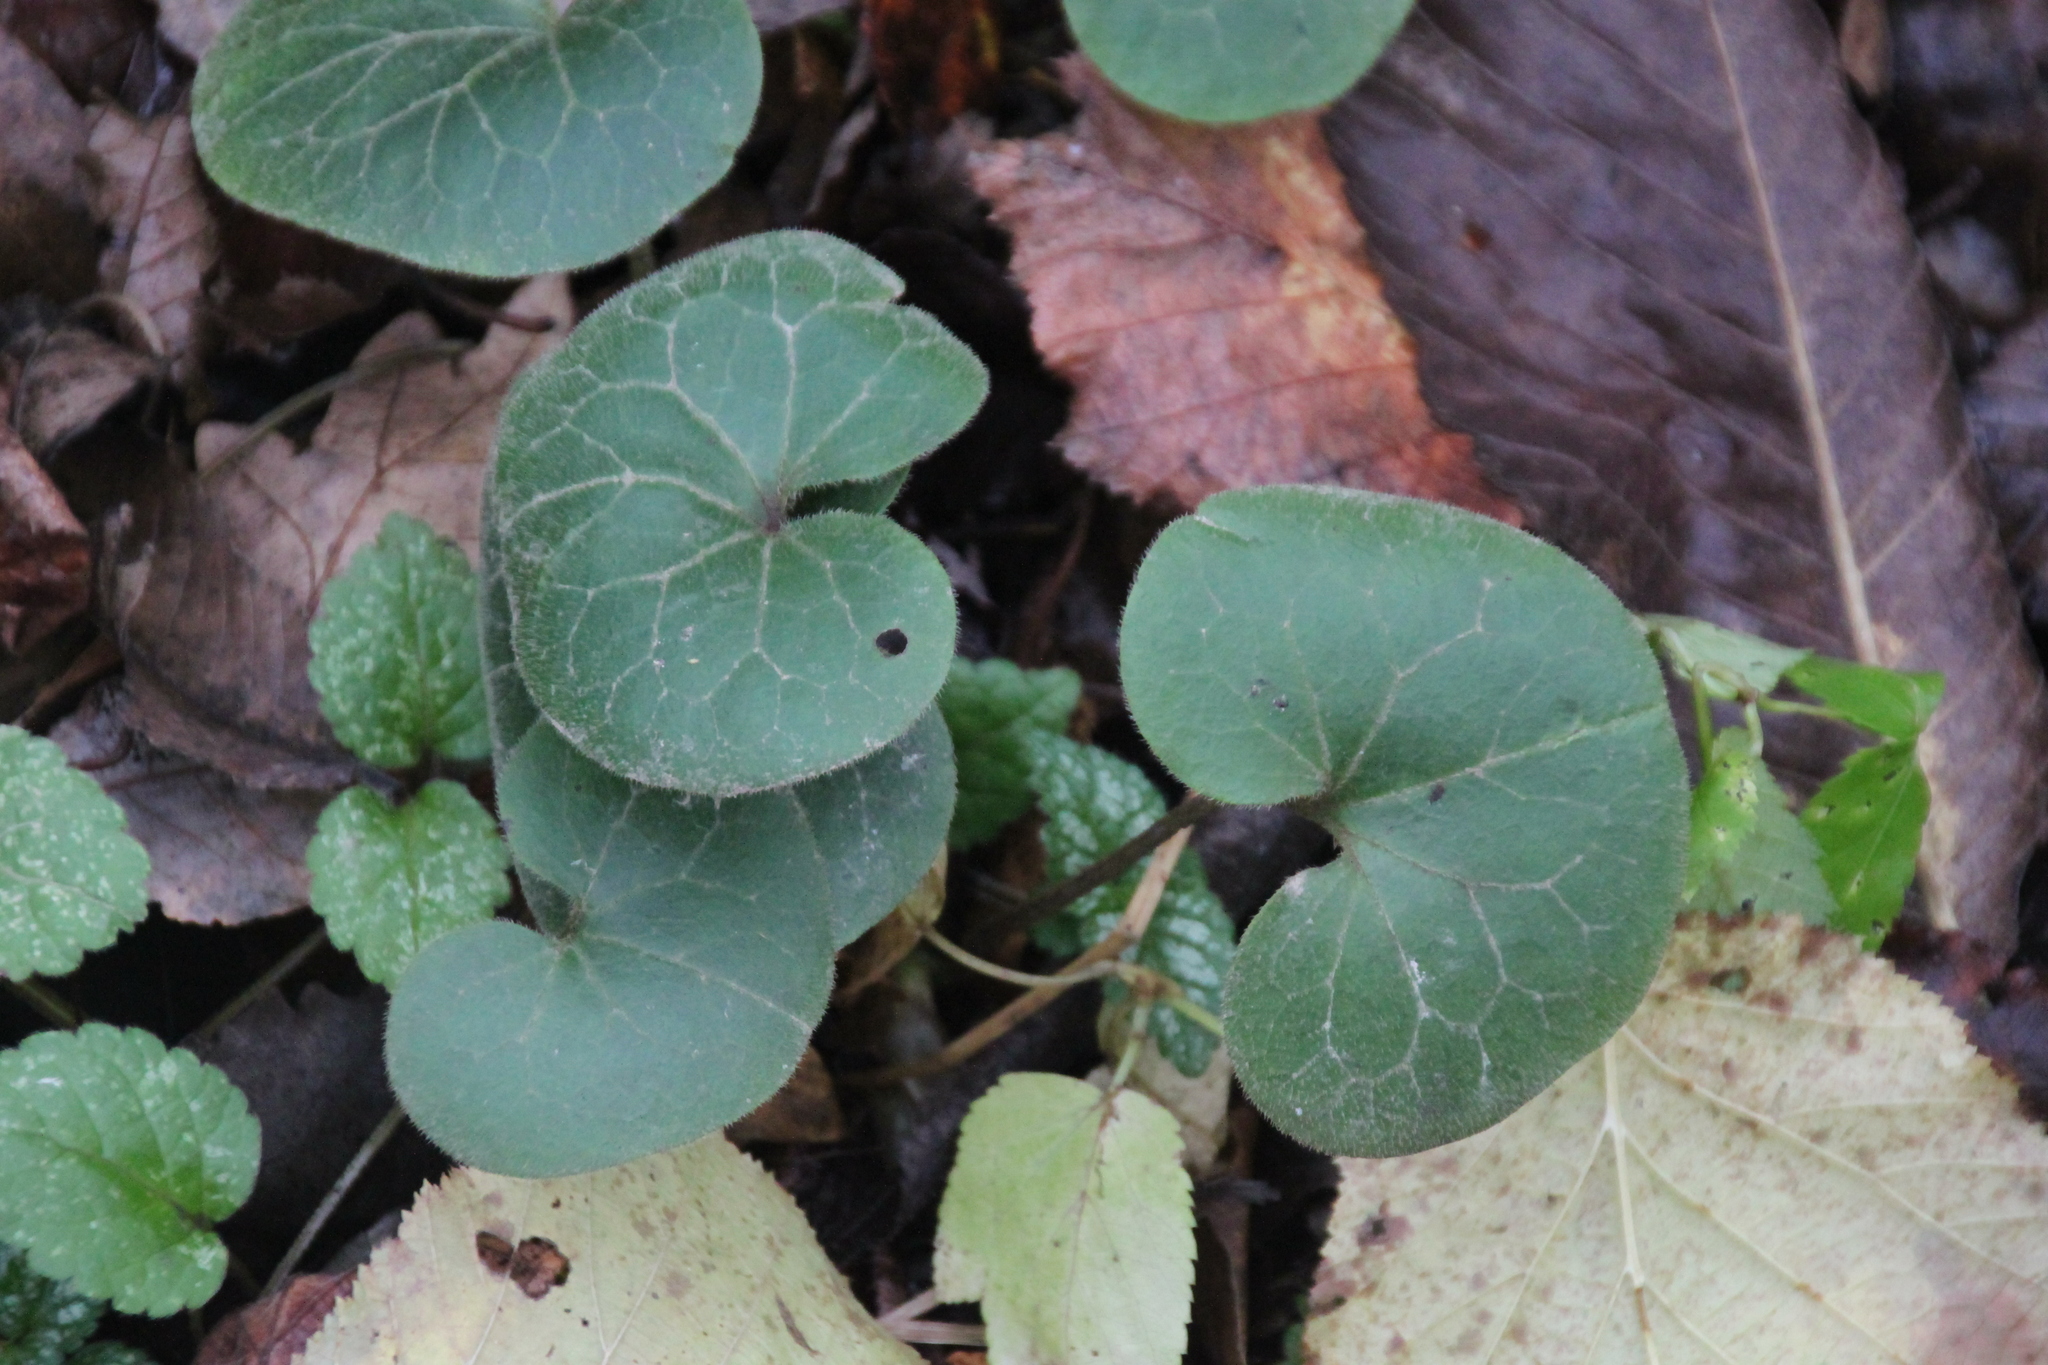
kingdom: Plantae
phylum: Tracheophyta
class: Magnoliopsida
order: Piperales
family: Aristolochiaceae
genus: Asarum
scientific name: Asarum europaeum
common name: Asarabacca
